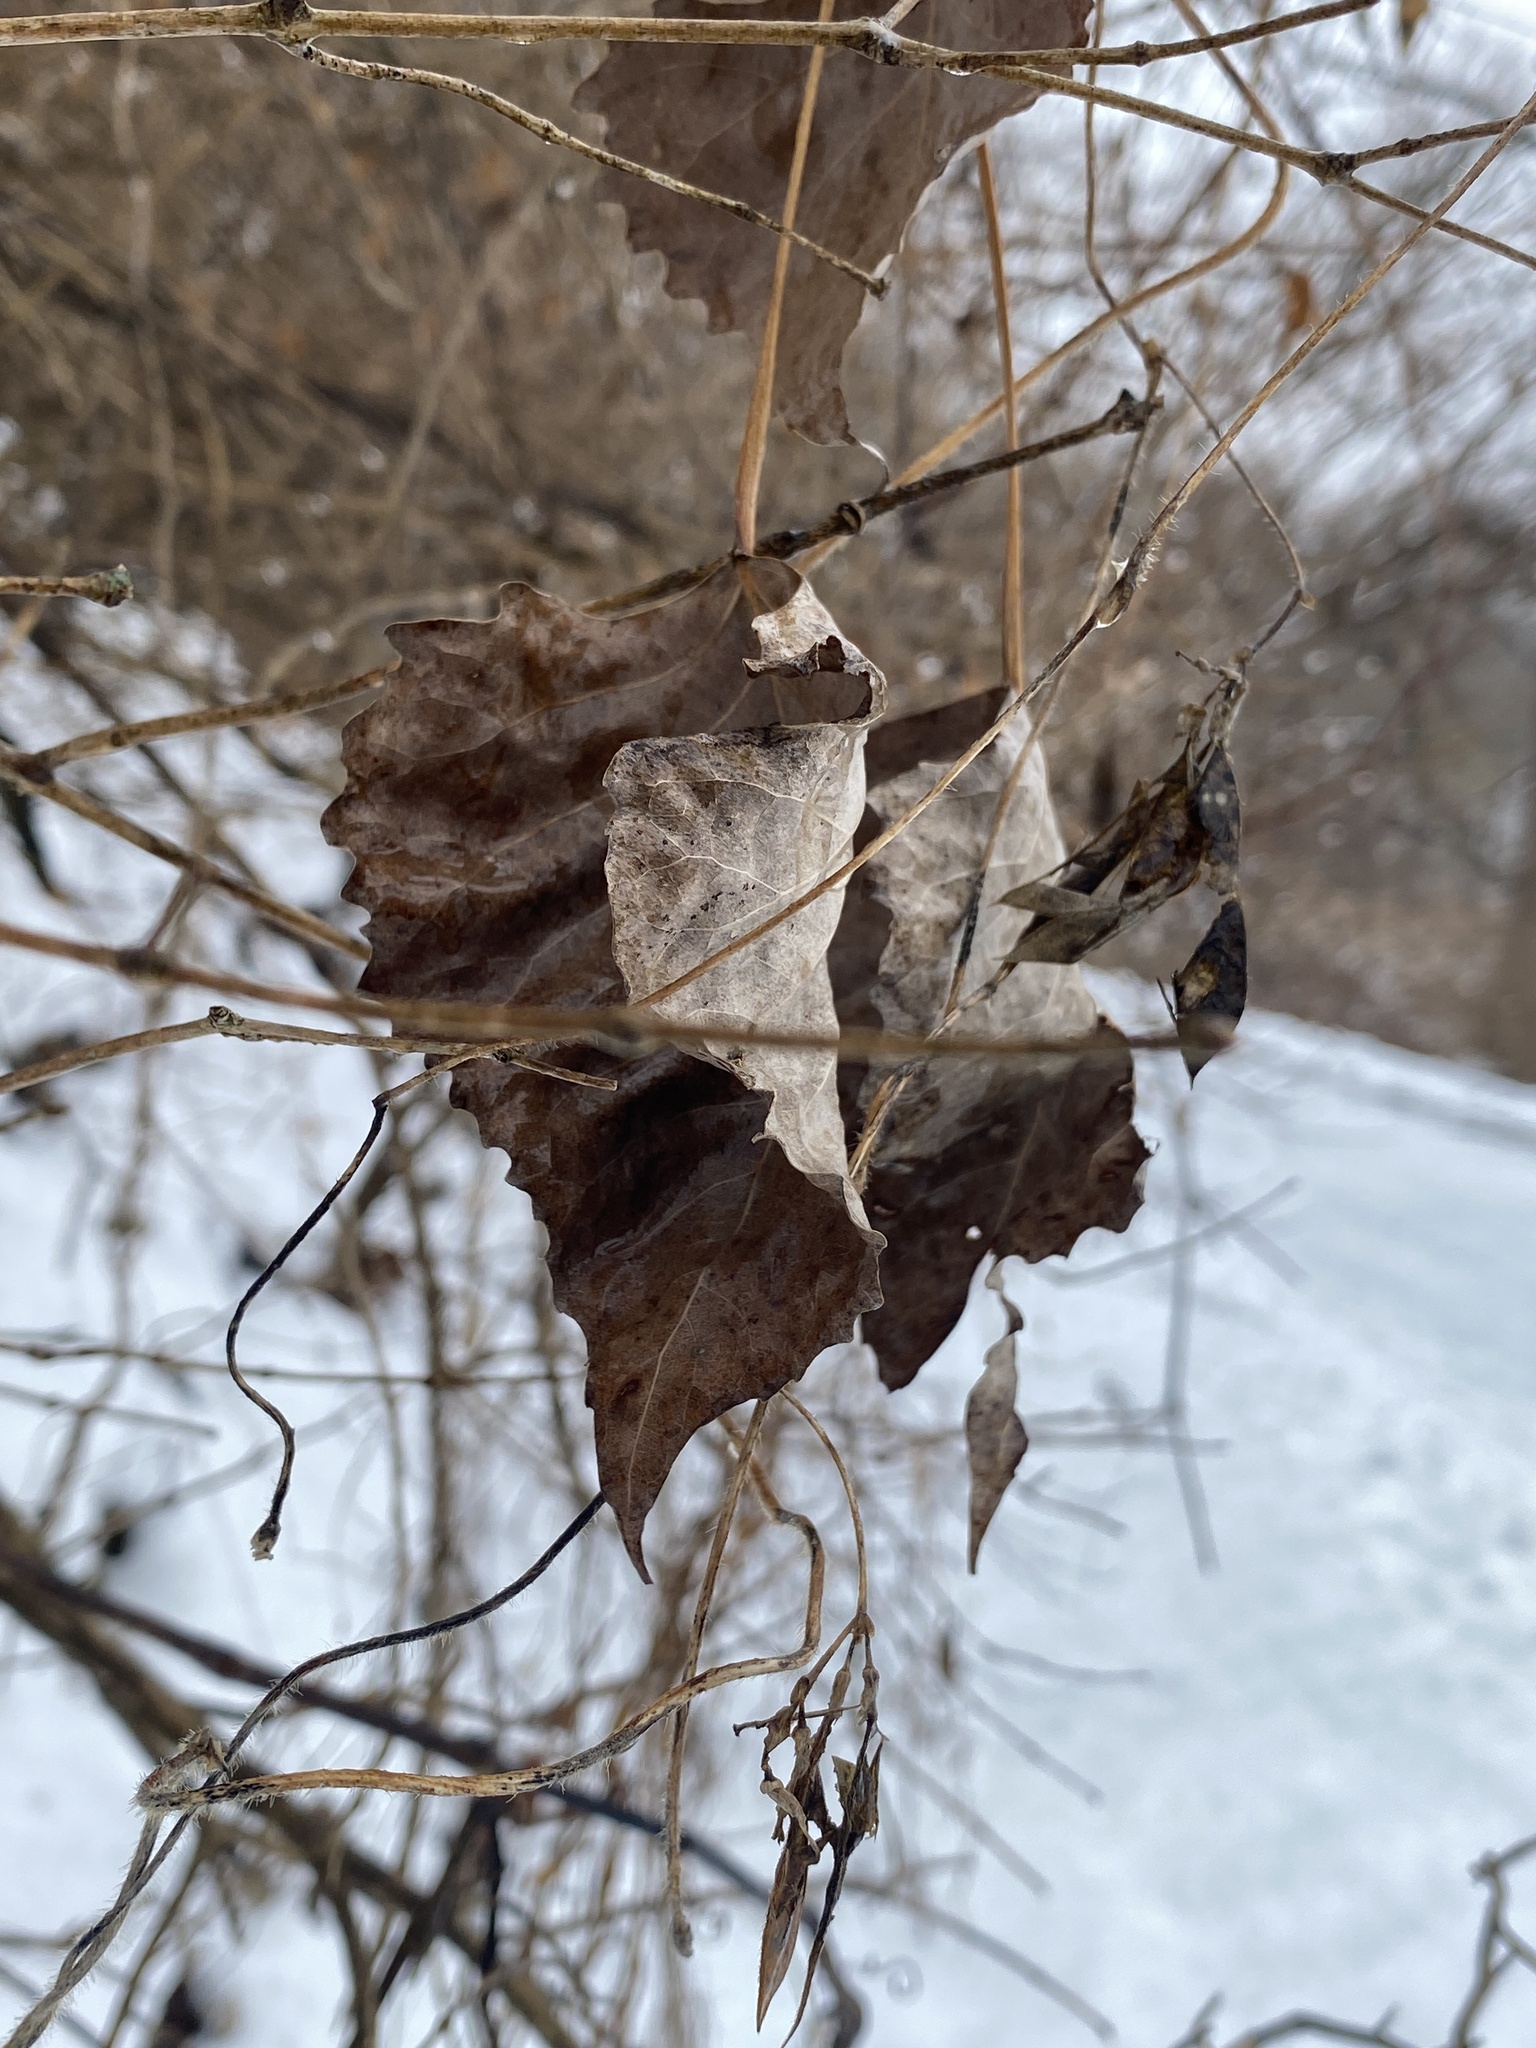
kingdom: Plantae
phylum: Tracheophyta
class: Magnoliopsida
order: Malpighiales
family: Salicaceae
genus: Populus
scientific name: Populus deltoides
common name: Eastern cottonwood
